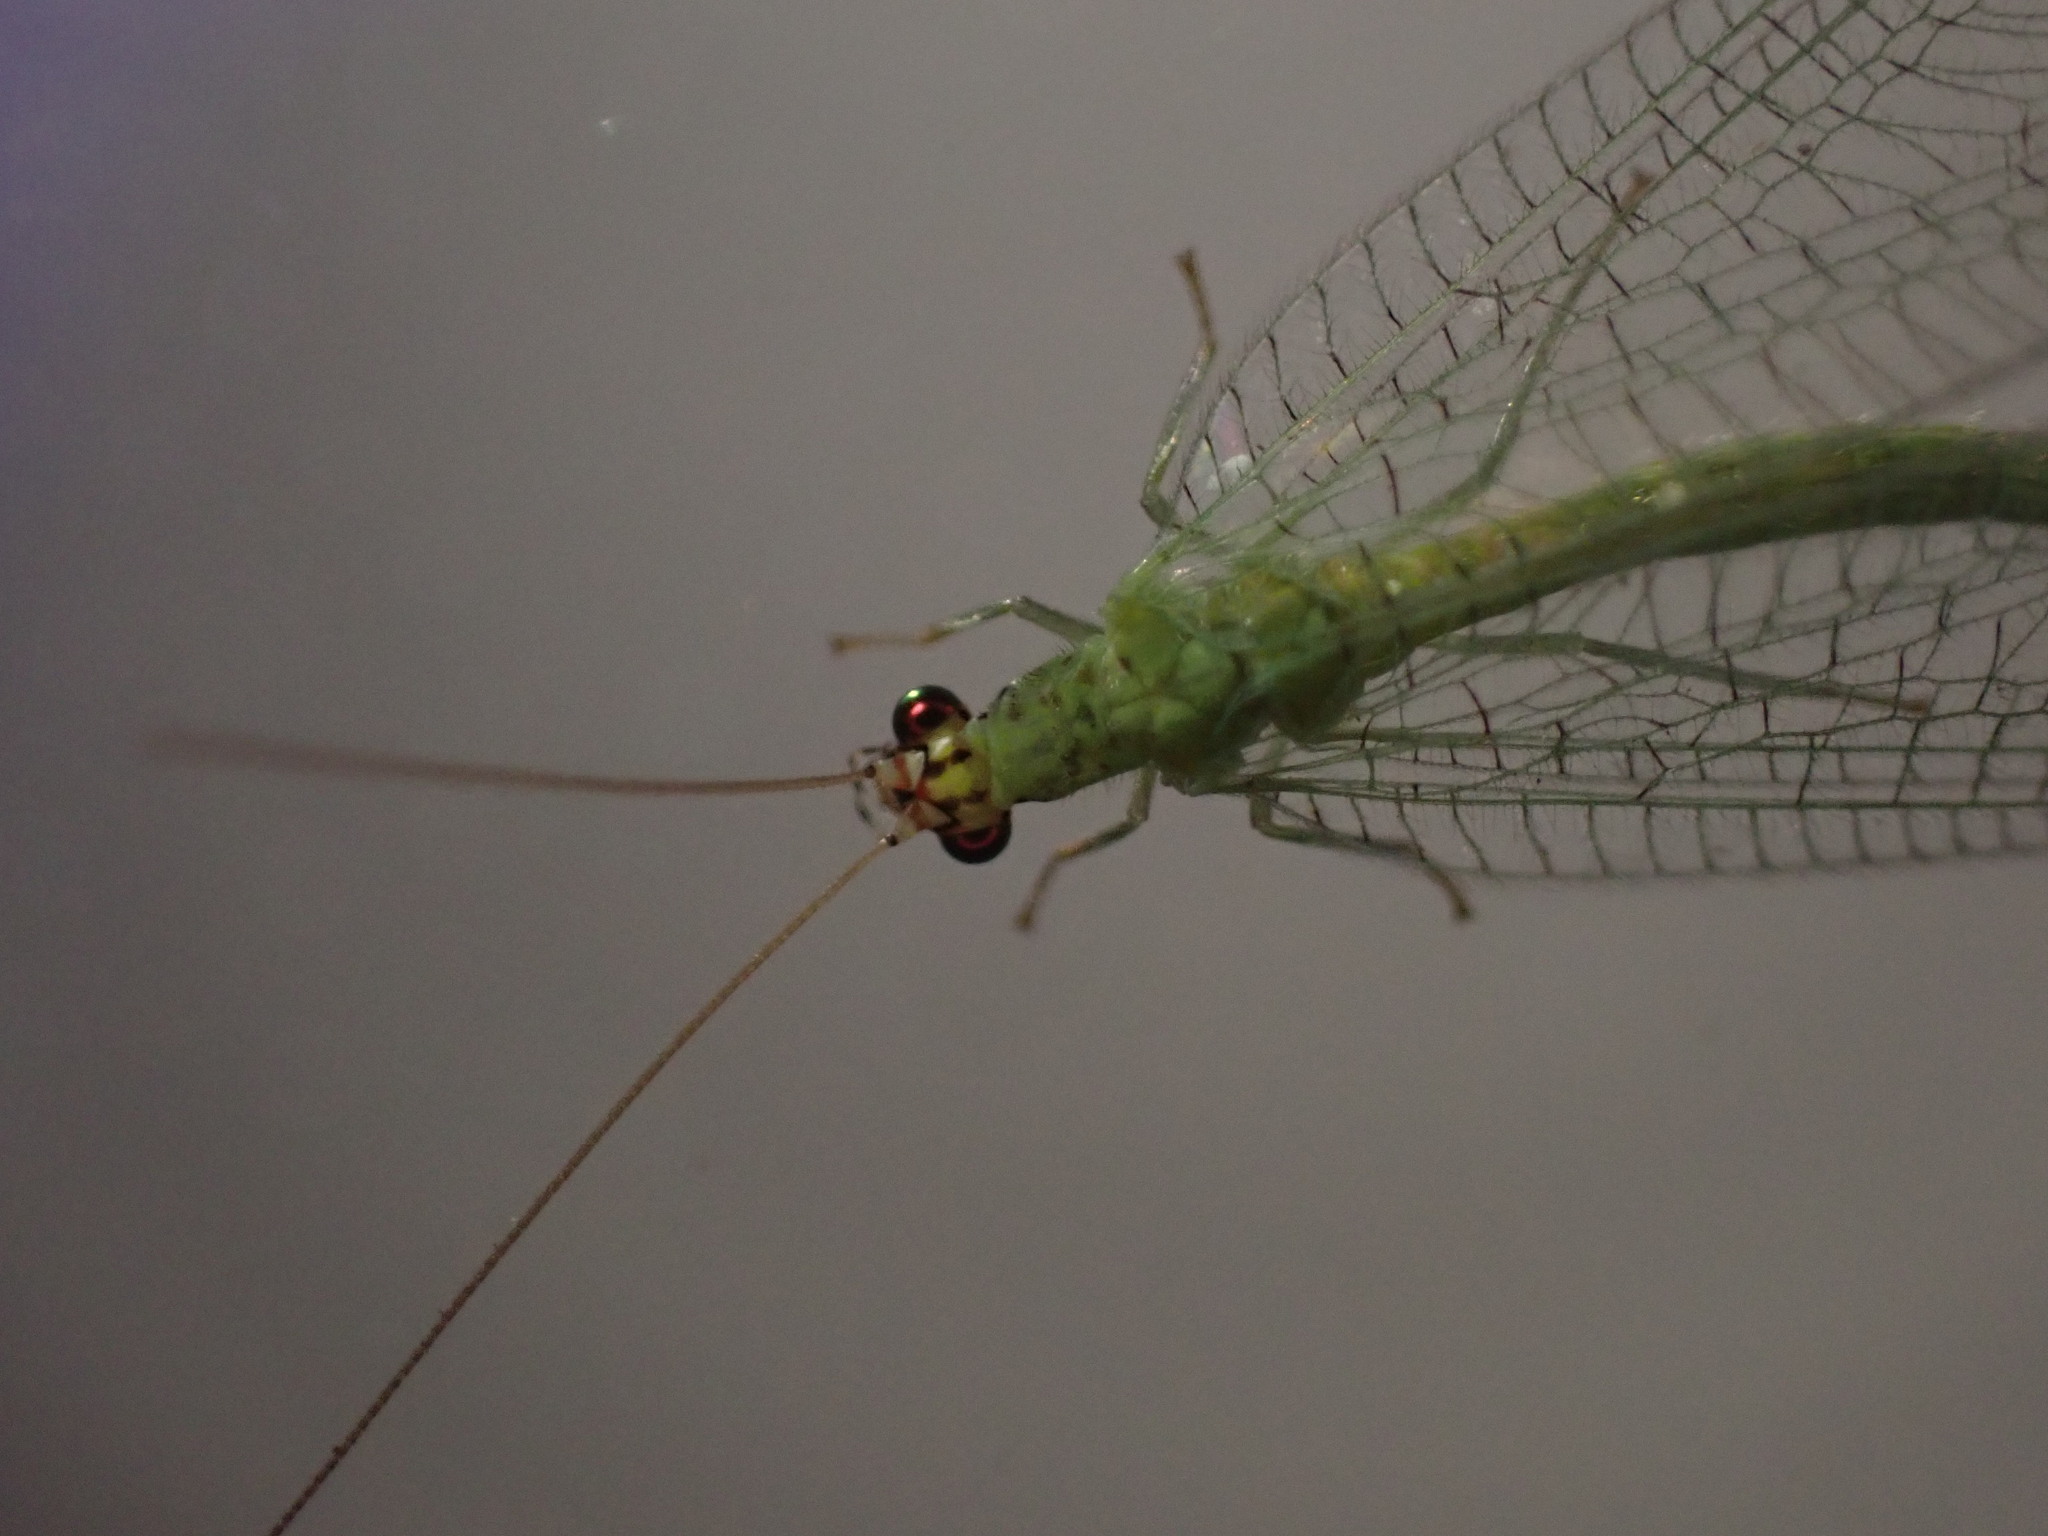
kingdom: Animalia
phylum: Arthropoda
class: Insecta
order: Neuroptera
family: Chrysopidae
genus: Chrysopa
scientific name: Chrysopa oculata
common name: Golden-eyed lacewing
